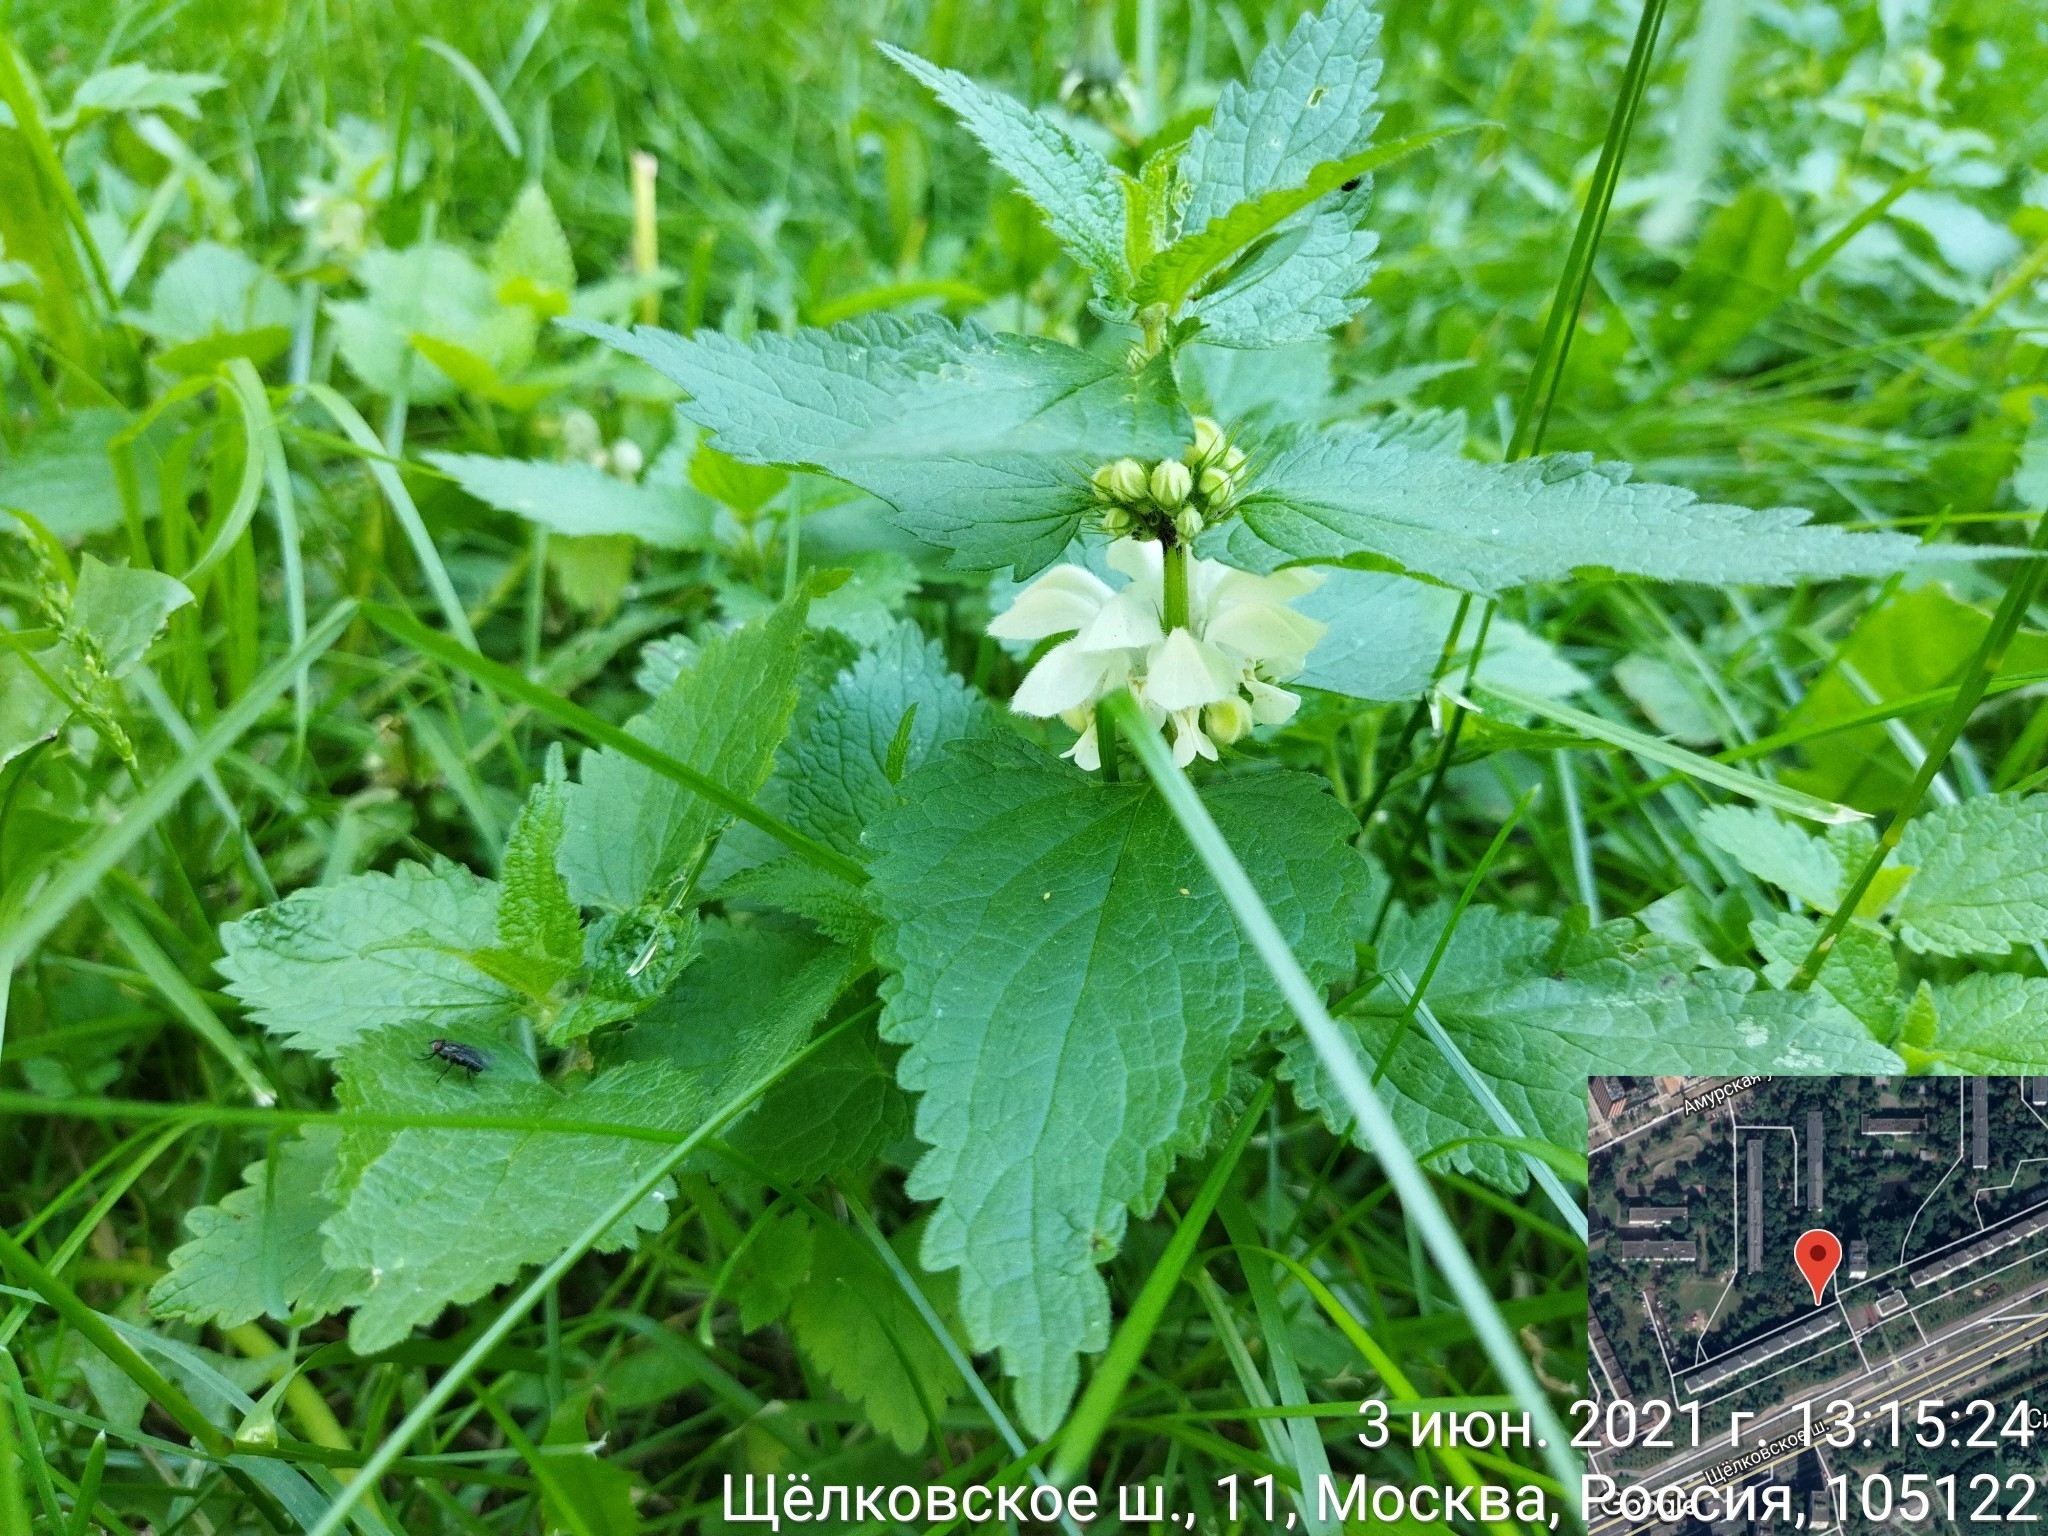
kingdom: Plantae
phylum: Tracheophyta
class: Magnoliopsida
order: Lamiales
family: Lamiaceae
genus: Lamium
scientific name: Lamium album
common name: White dead-nettle
